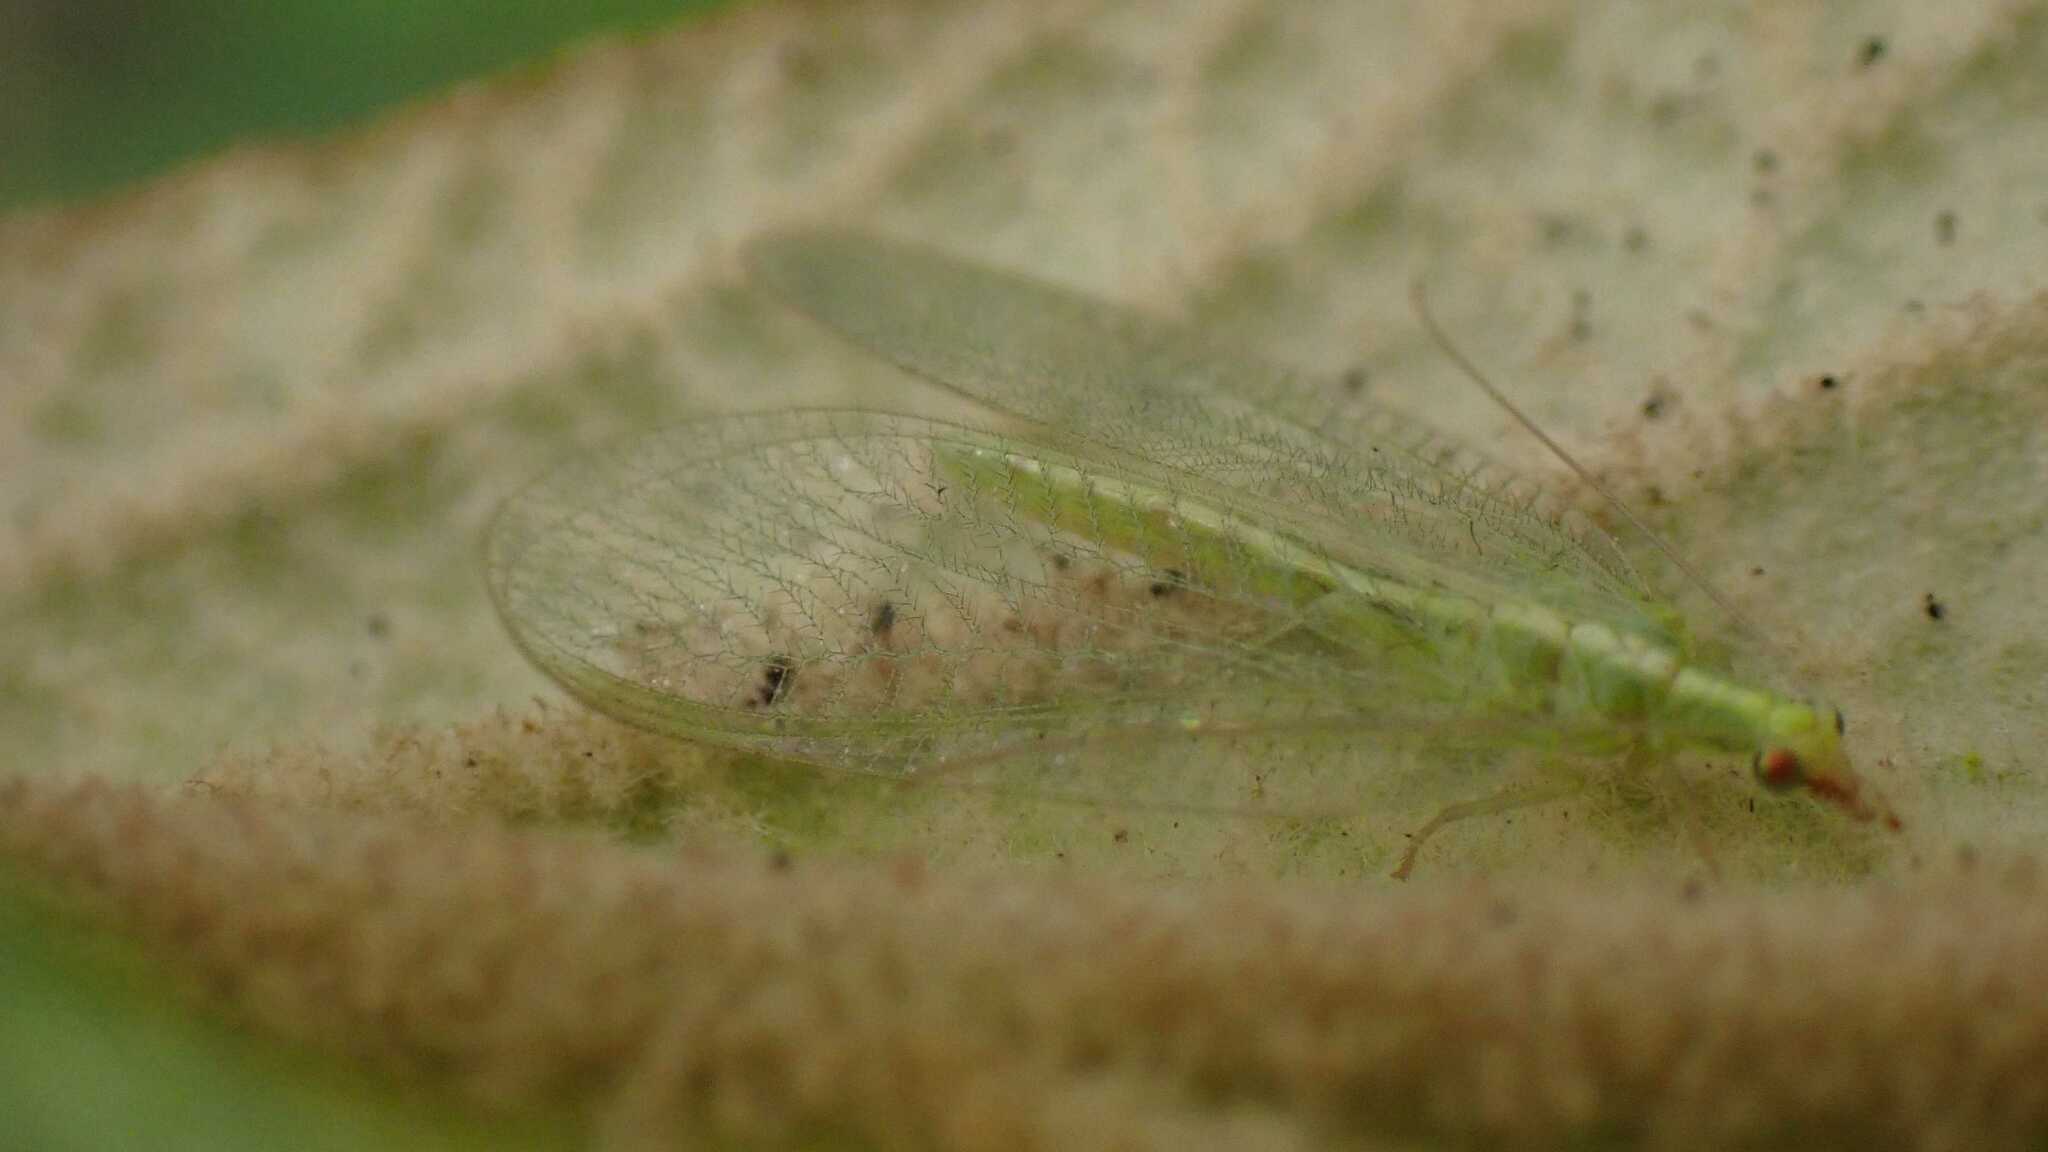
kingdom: Animalia
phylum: Arthropoda
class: Insecta
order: Neuroptera
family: Chrysopidae
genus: Chrysoperla
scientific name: Chrysoperla
